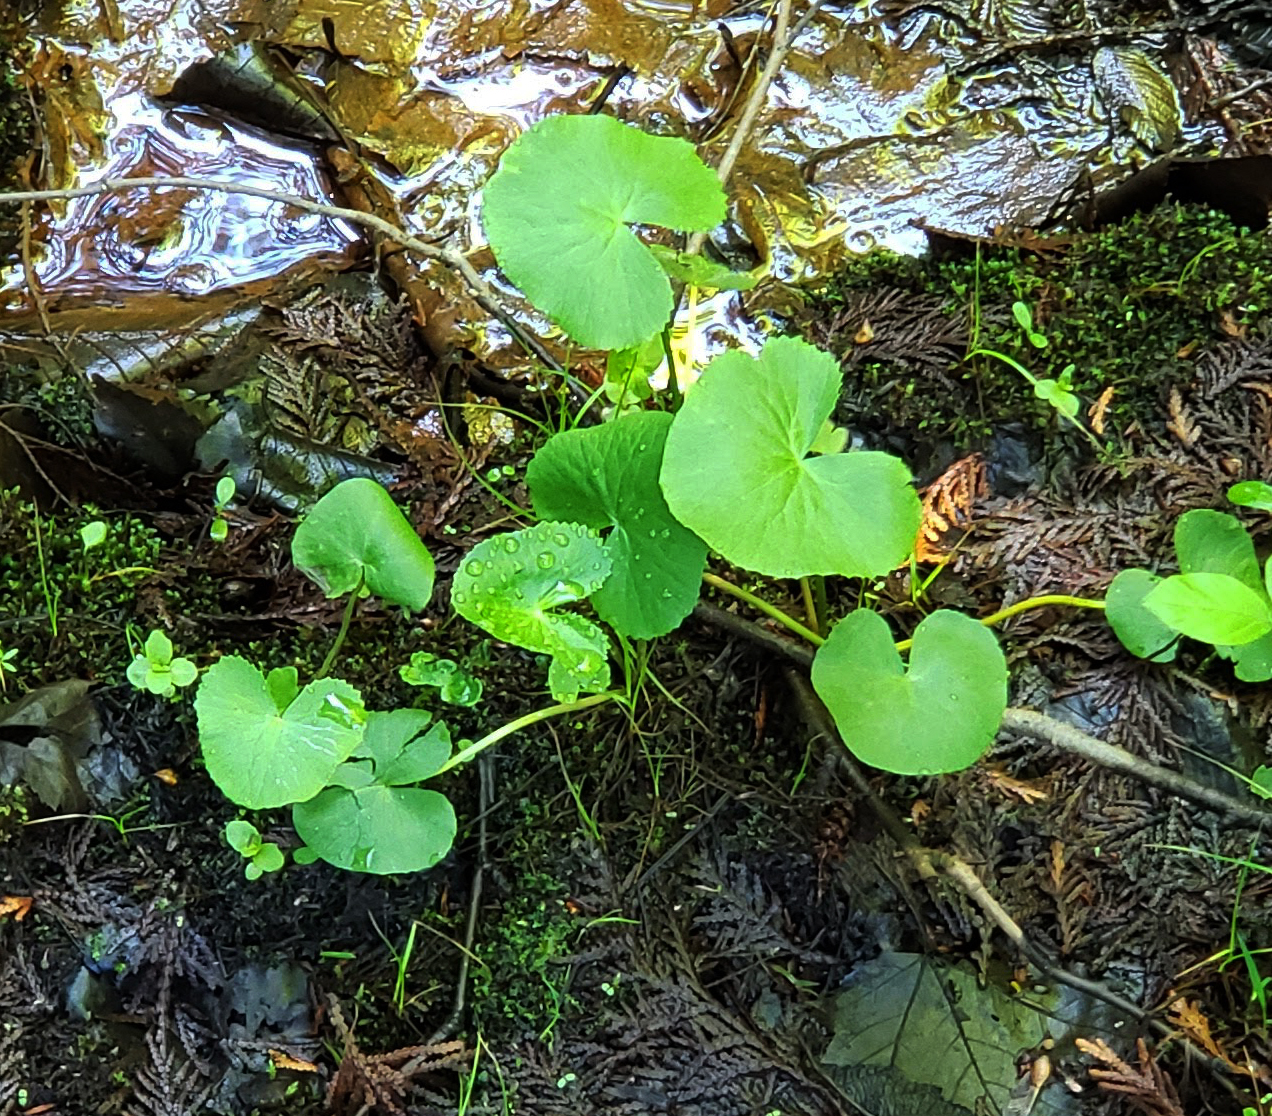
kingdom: Plantae
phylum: Tracheophyta
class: Magnoliopsida
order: Ranunculales
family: Ranunculaceae
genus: Caltha
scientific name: Caltha palustris
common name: Marsh marigold
